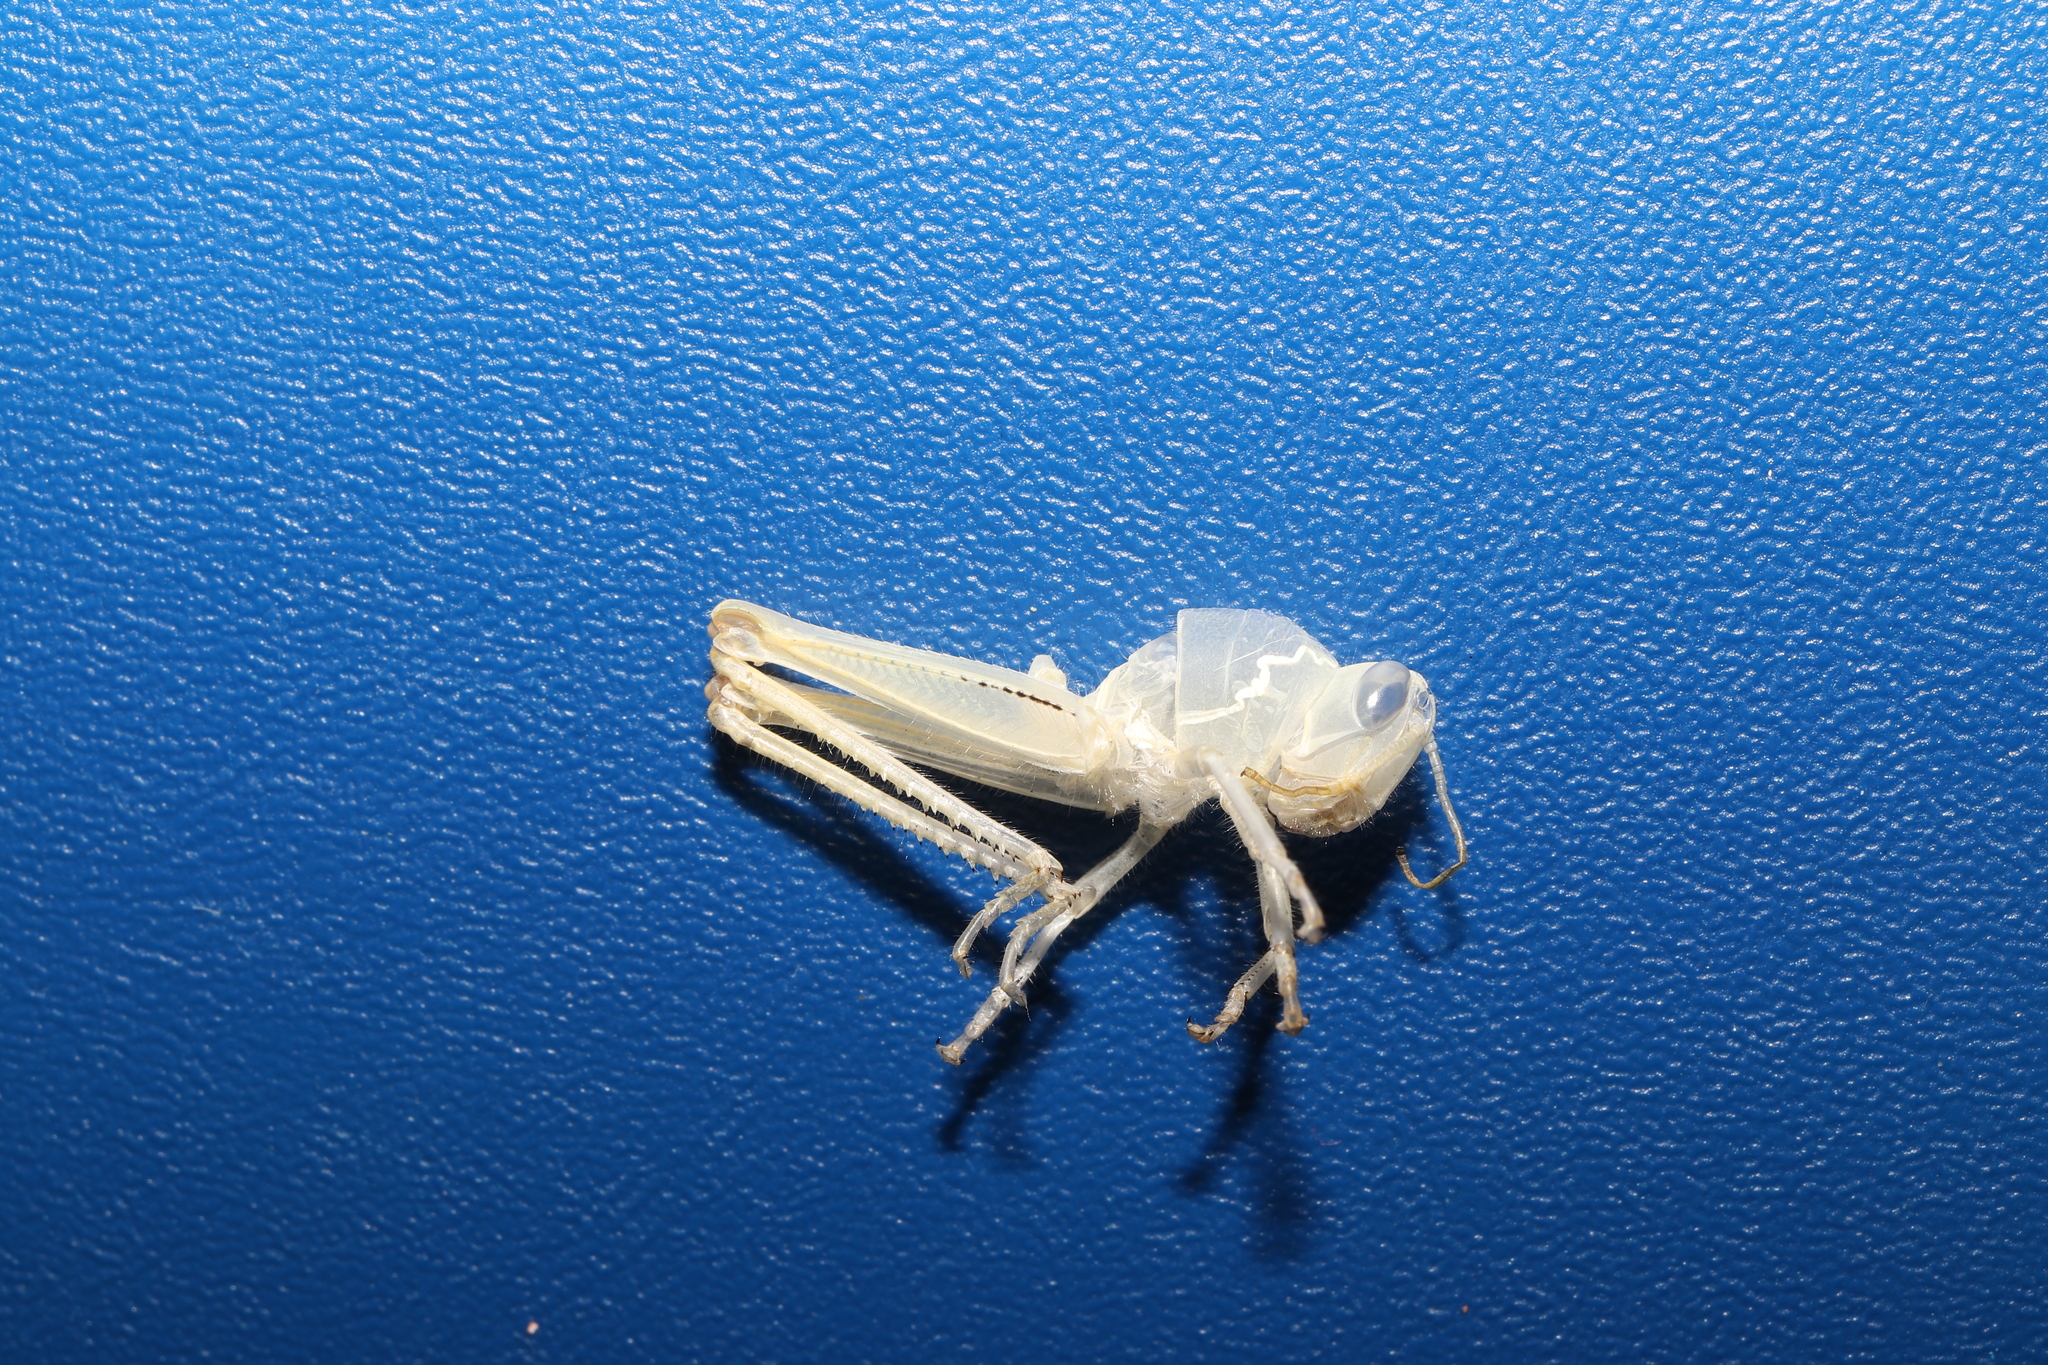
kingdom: Animalia
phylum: Arthropoda
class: Insecta
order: Orthoptera
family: Acrididae
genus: Patanga
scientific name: Patanga japonica
